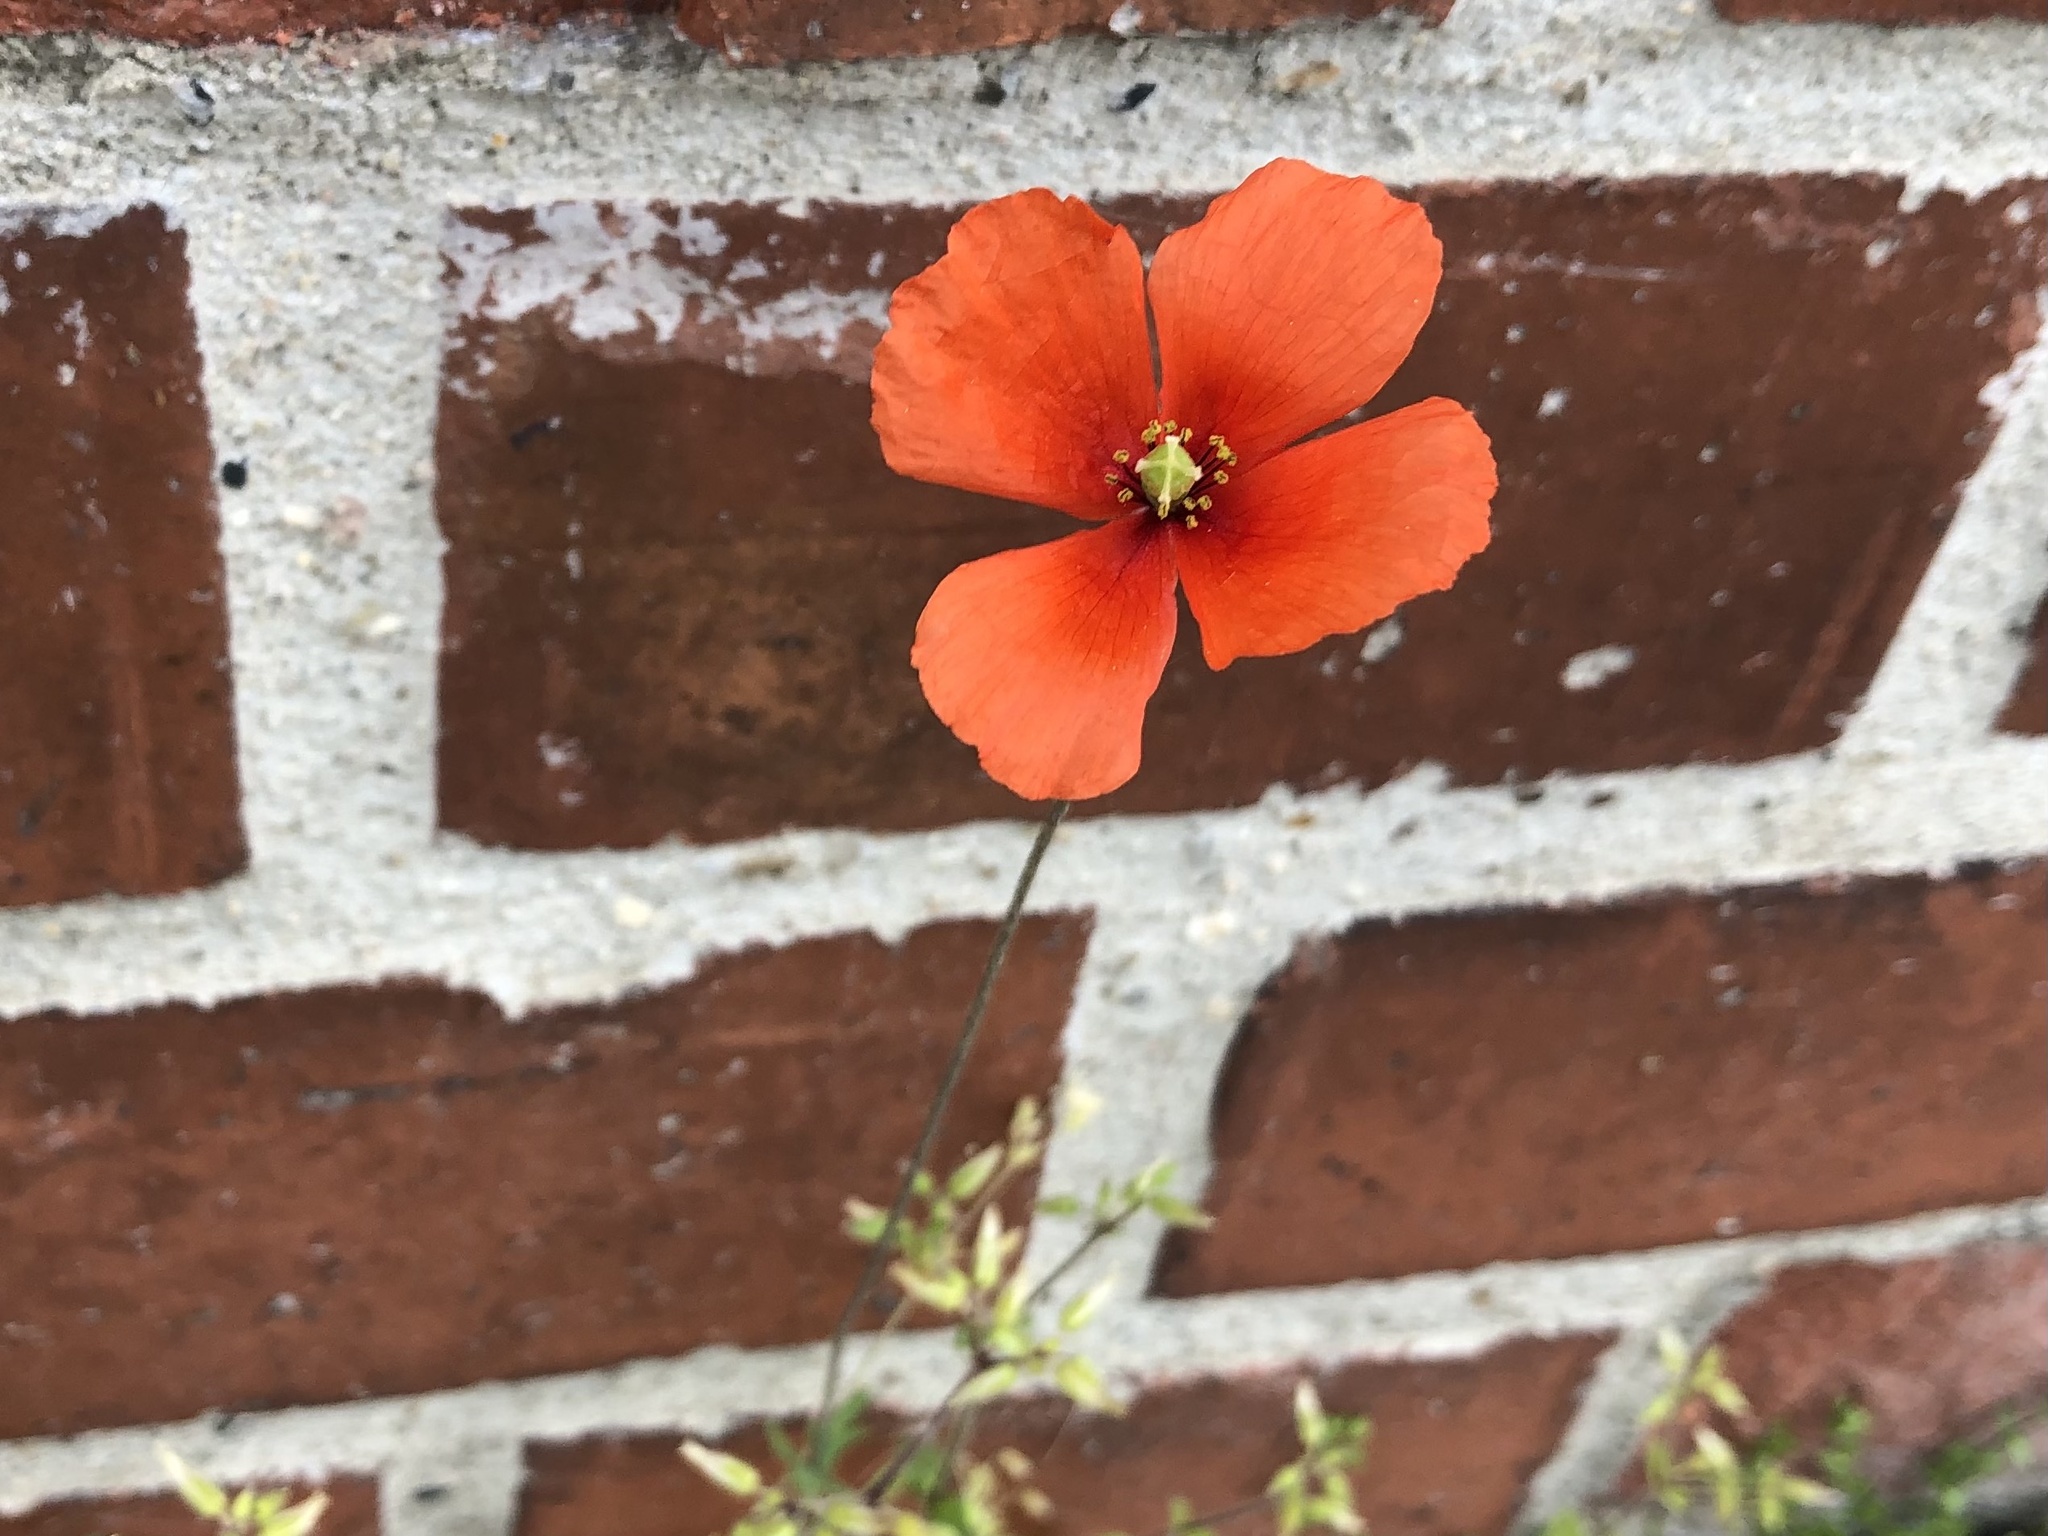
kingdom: Plantae
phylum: Tracheophyta
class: Magnoliopsida
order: Ranunculales
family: Papaveraceae
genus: Papaver
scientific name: Papaver dubium
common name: Long-headed poppy
